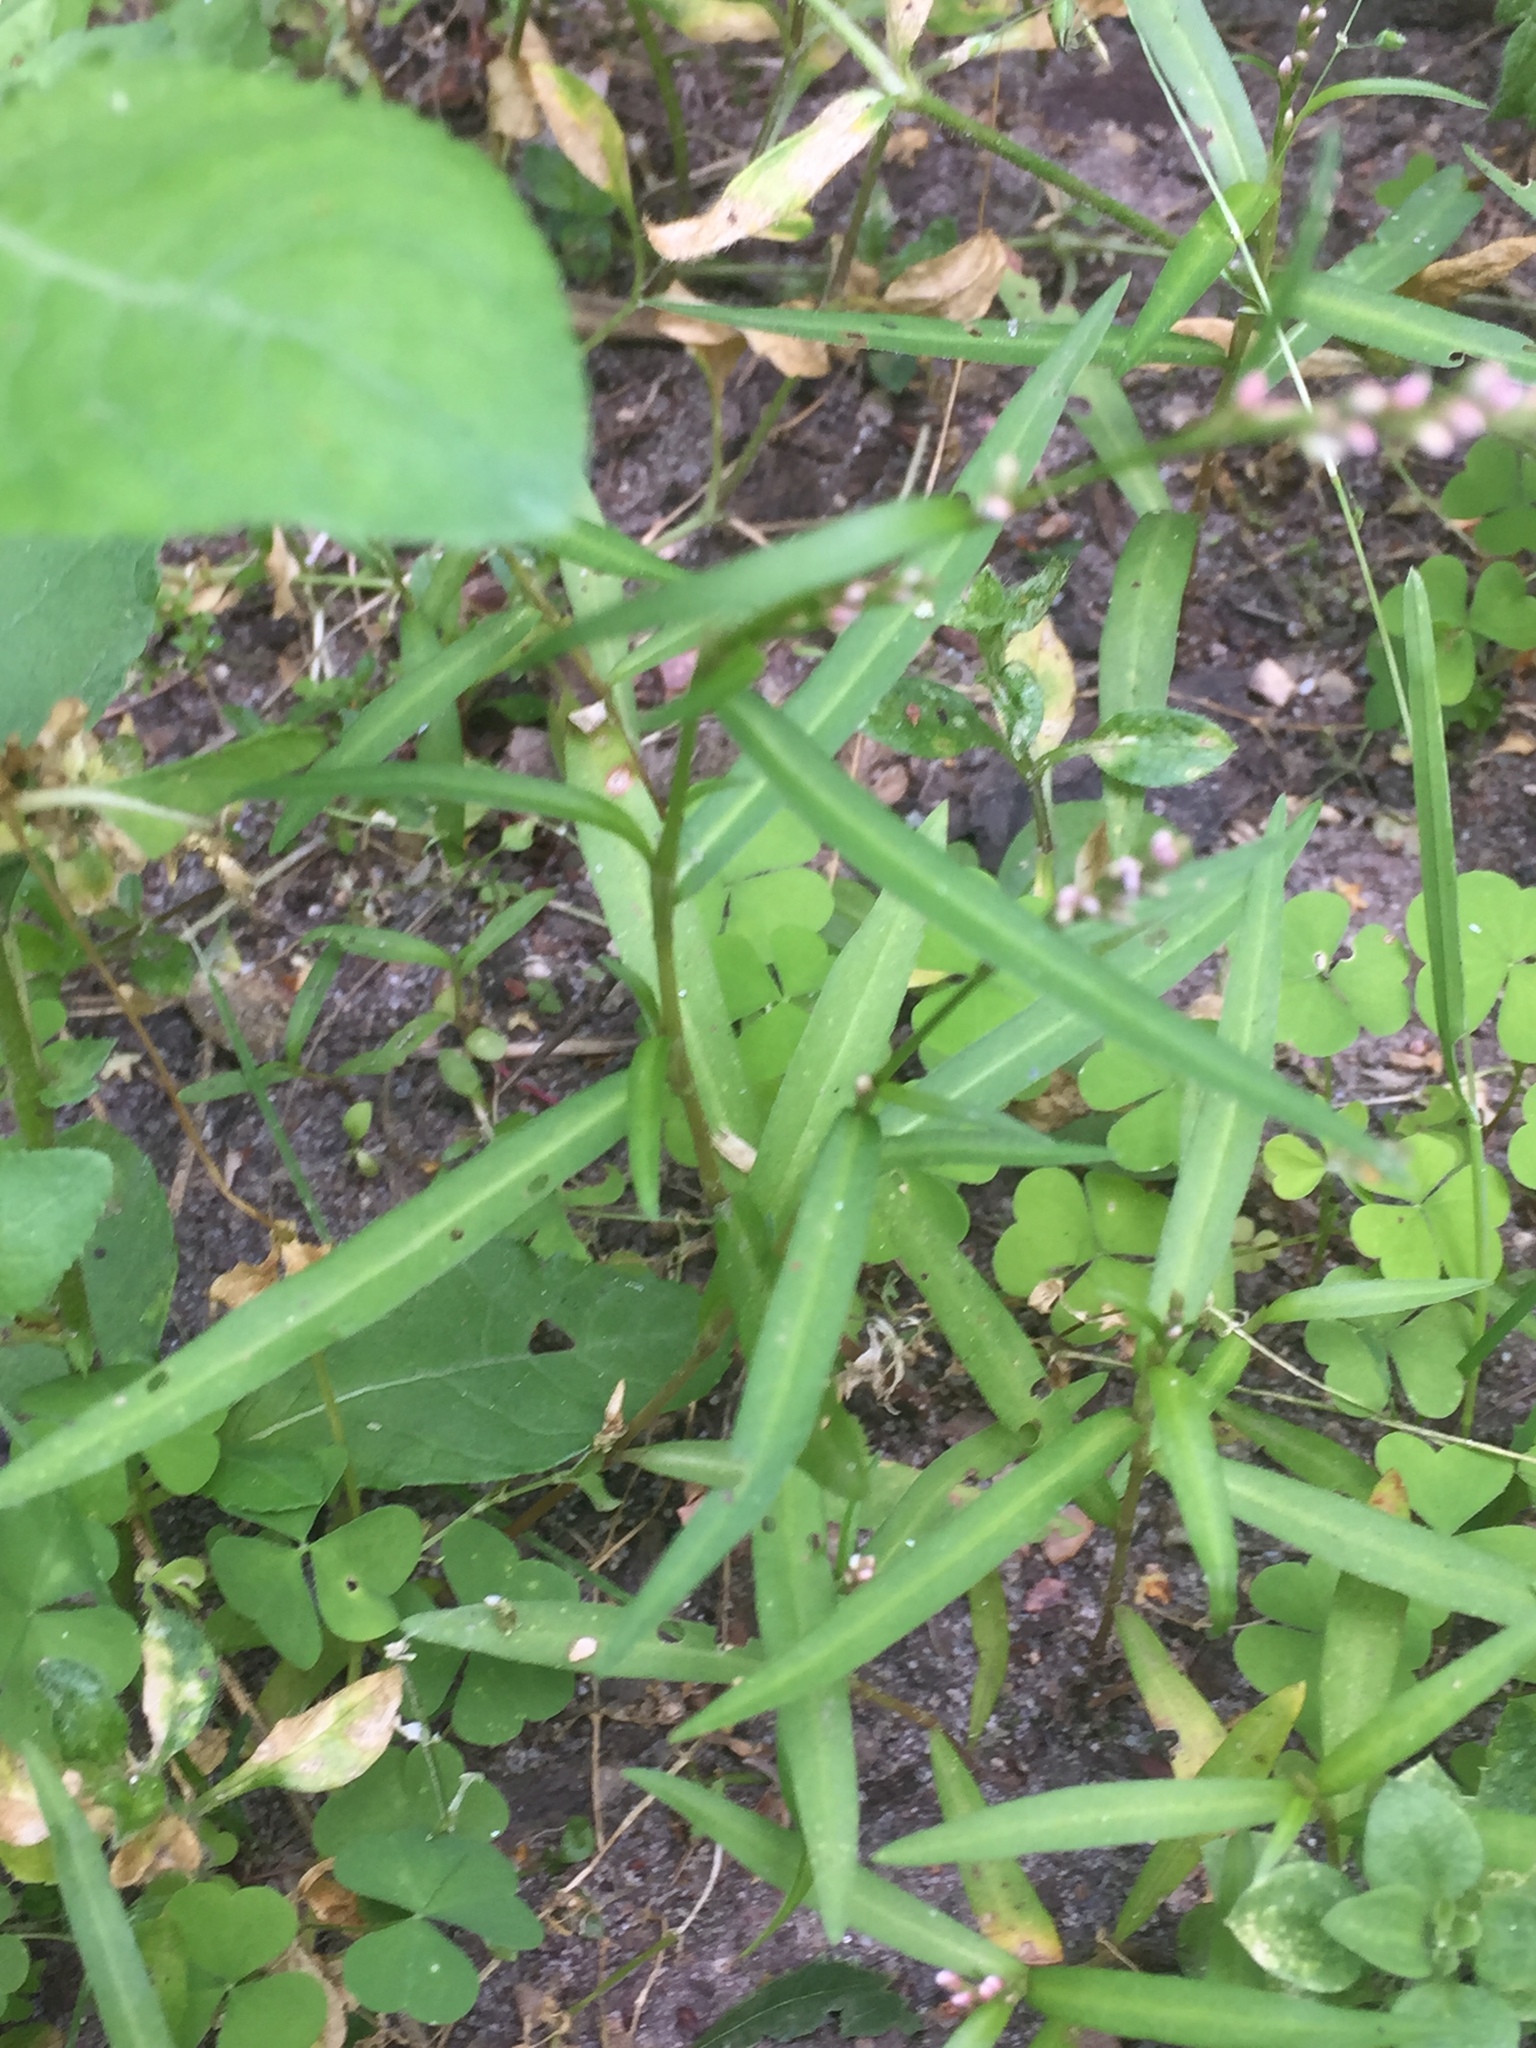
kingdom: Plantae
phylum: Tracheophyta
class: Magnoliopsida
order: Caryophyllales
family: Polygonaceae
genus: Persicaria
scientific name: Persicaria minor
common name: Small water-pepper
